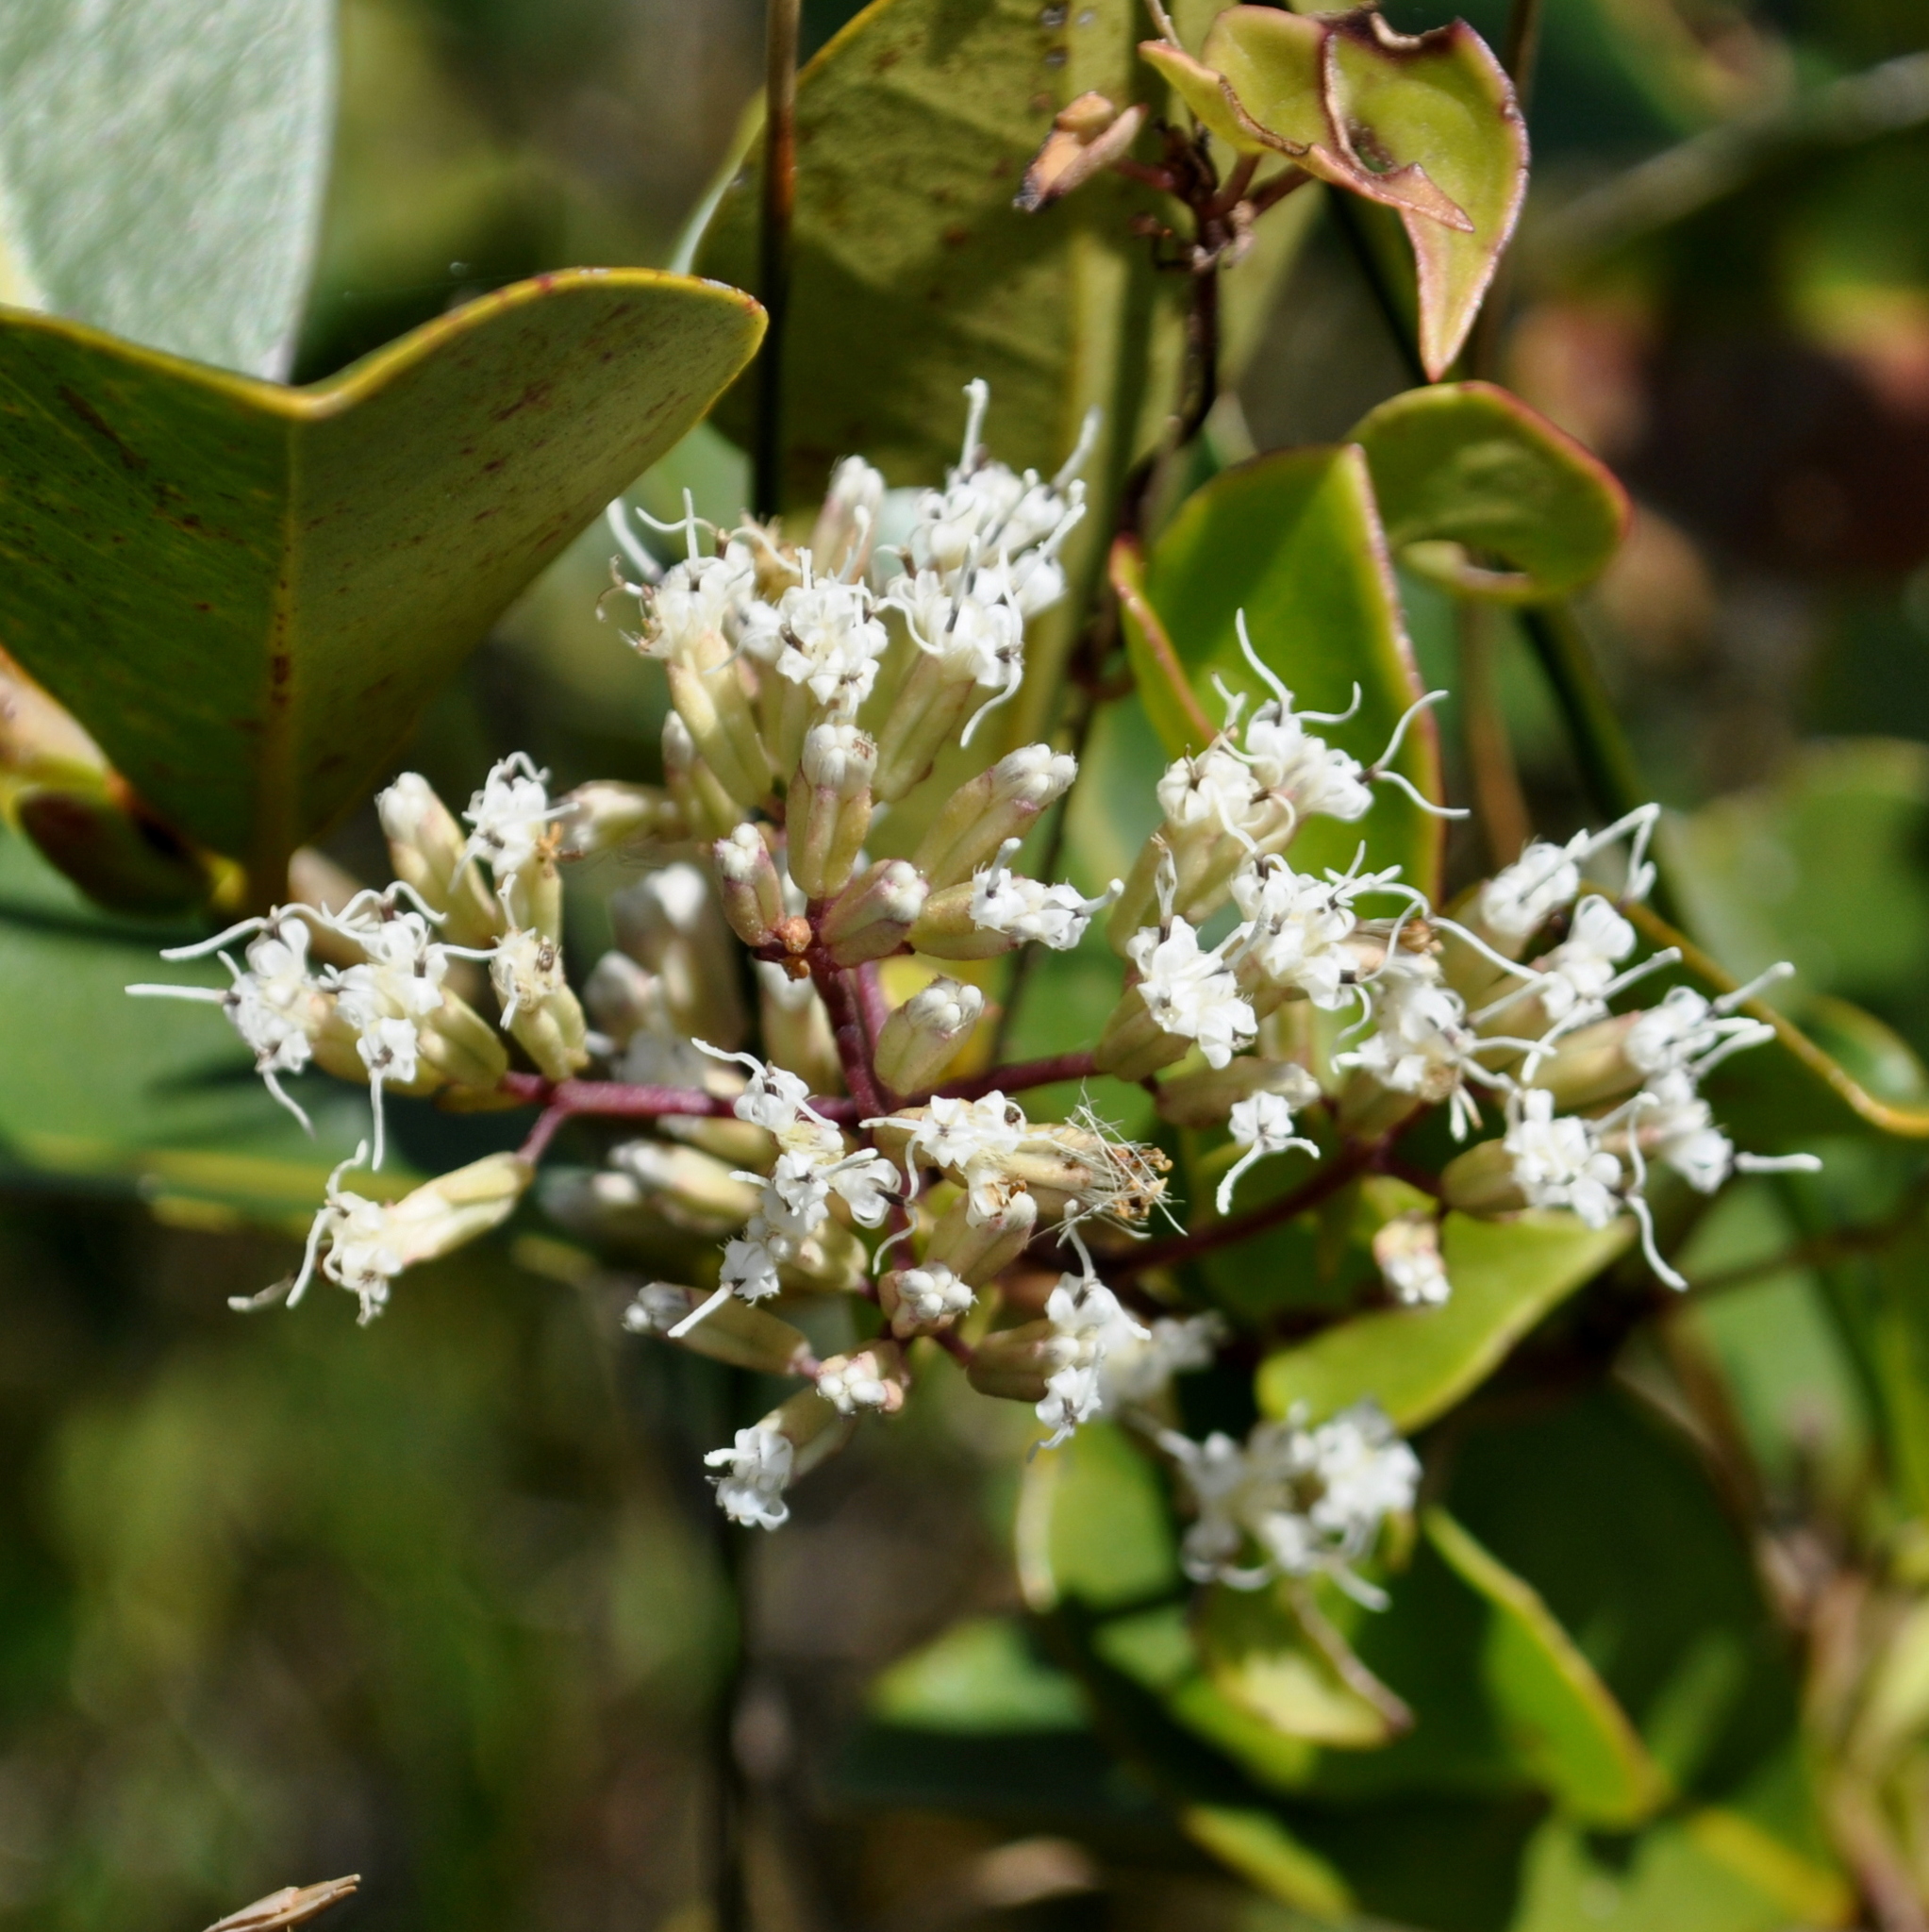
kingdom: Plantae
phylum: Tracheophyta
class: Magnoliopsida
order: Asterales
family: Asteraceae
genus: Mikania
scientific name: Mikania involucrata
